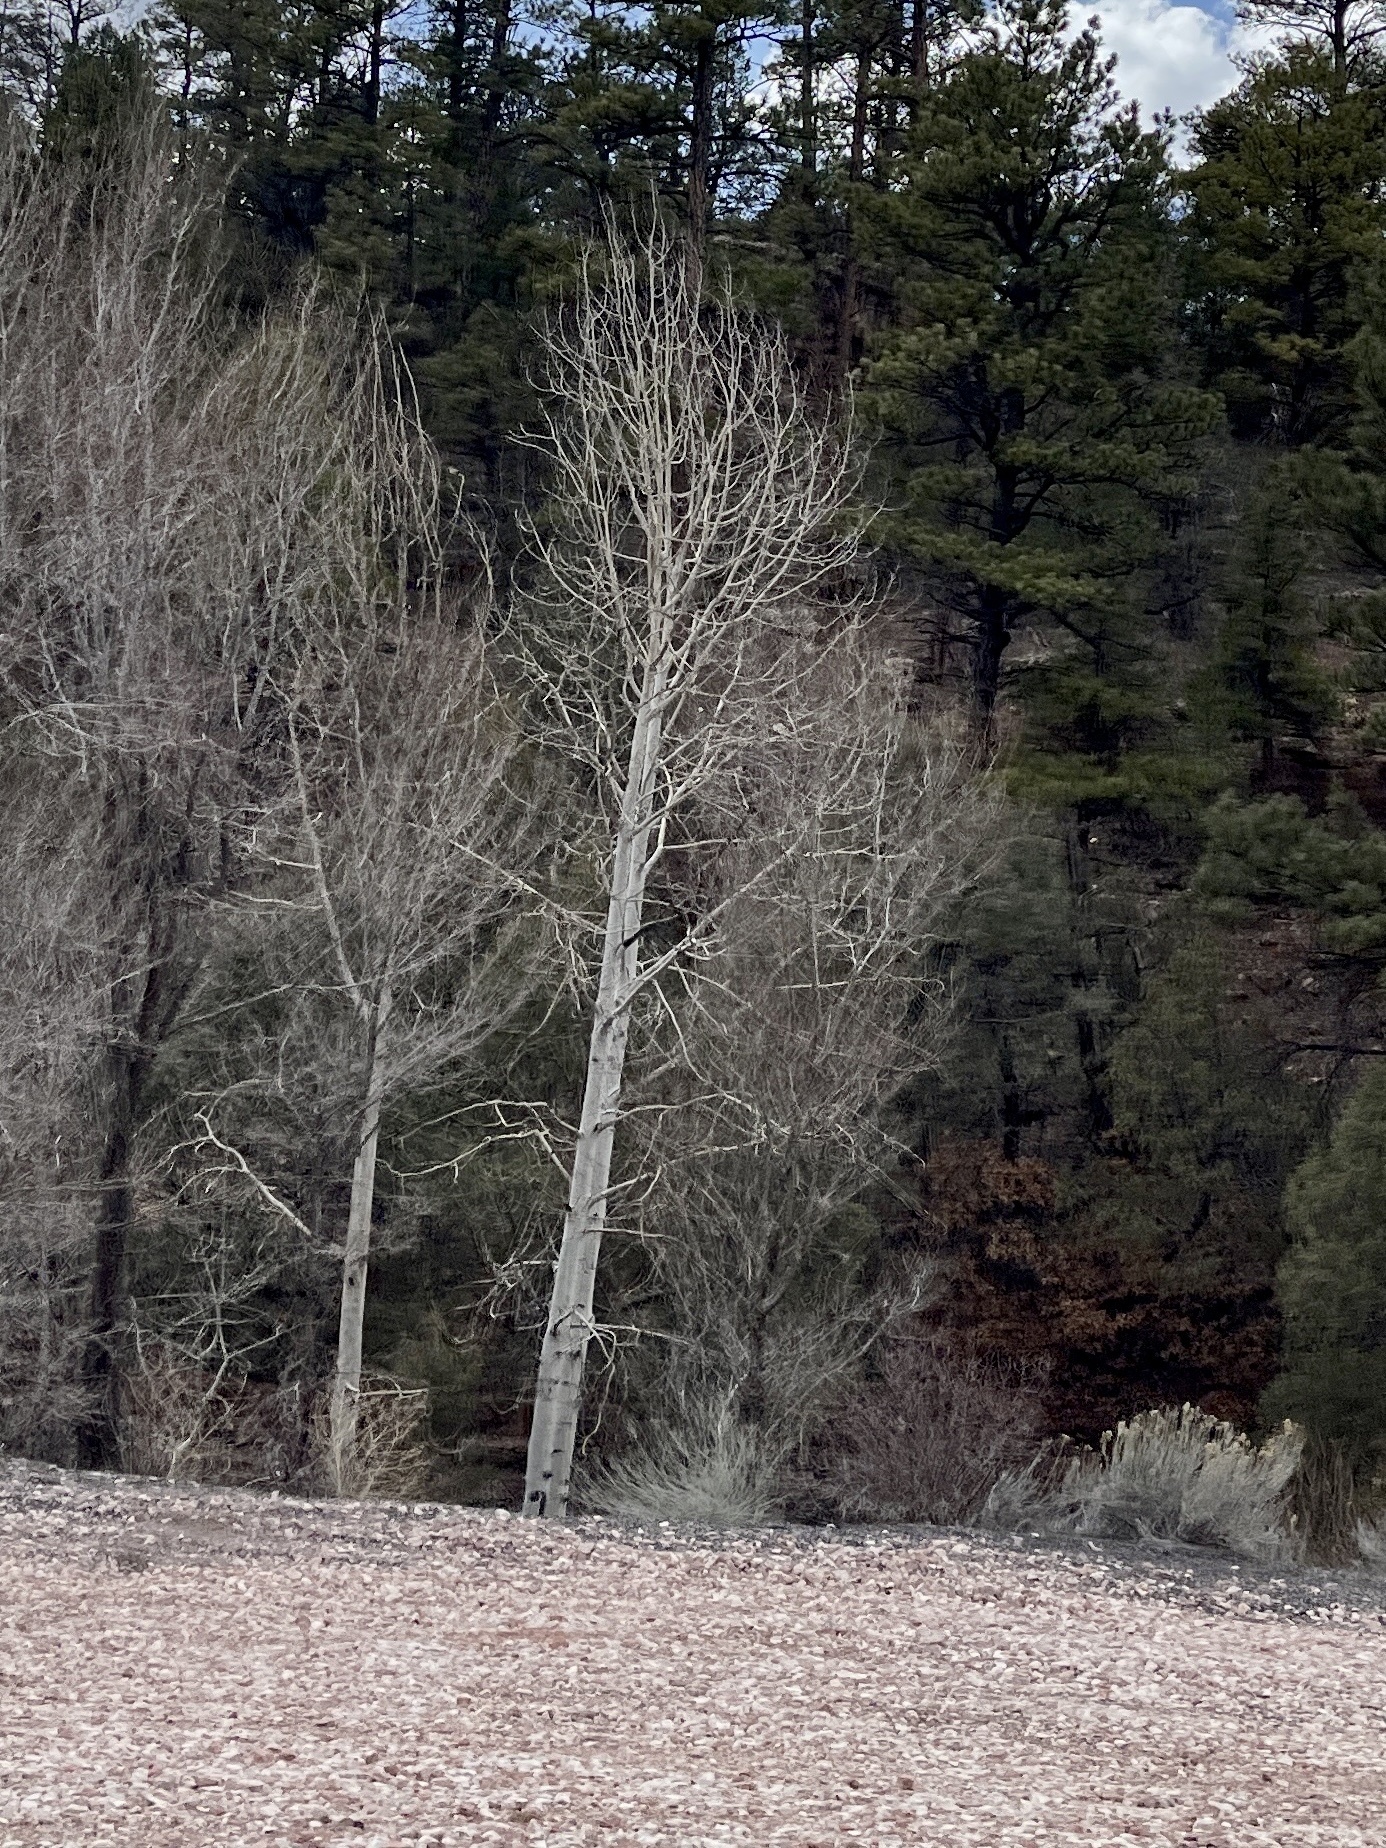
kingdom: Plantae
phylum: Tracheophyta
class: Magnoliopsida
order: Malpighiales
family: Salicaceae
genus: Populus
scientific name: Populus tremuloides
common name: Quaking aspen
